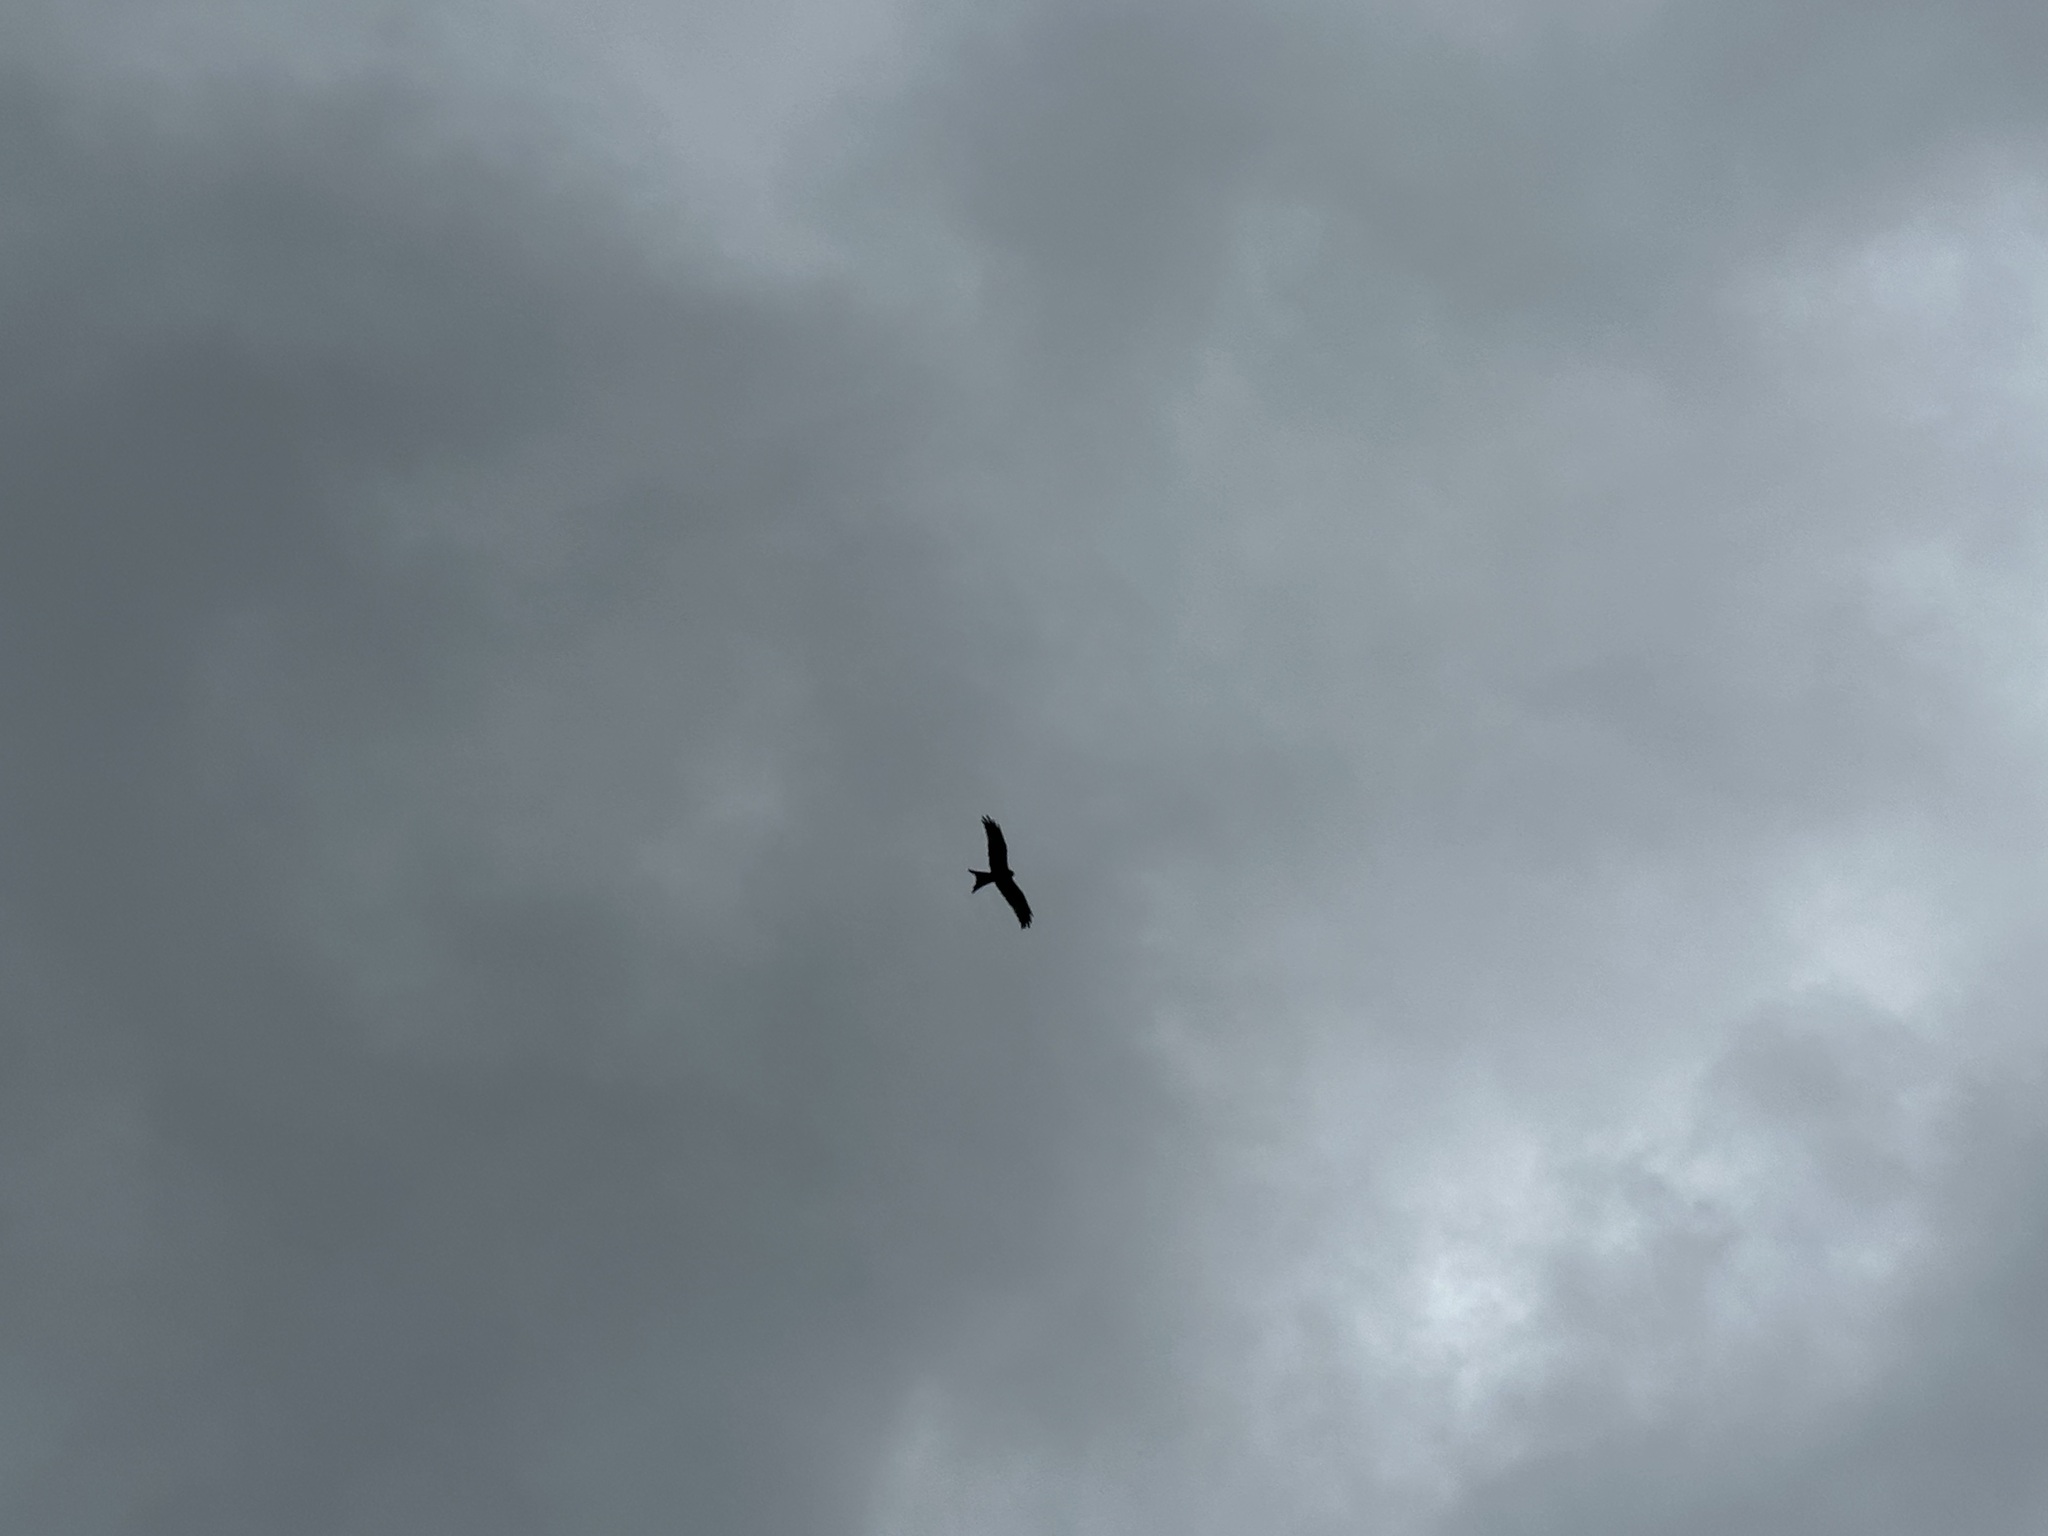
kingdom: Animalia
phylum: Chordata
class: Aves
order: Accipitriformes
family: Accipitridae
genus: Milvus
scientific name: Milvus milvus
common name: Red kite
